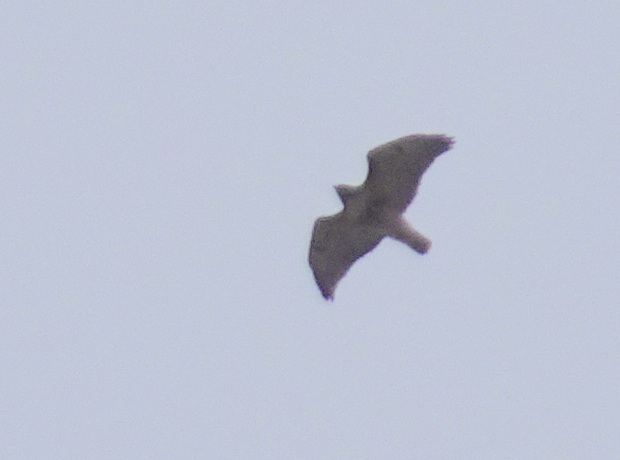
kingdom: Animalia
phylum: Chordata
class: Aves
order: Accipitriformes
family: Accipitridae
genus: Buteo
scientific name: Buteo jamaicensis
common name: Red-tailed hawk
